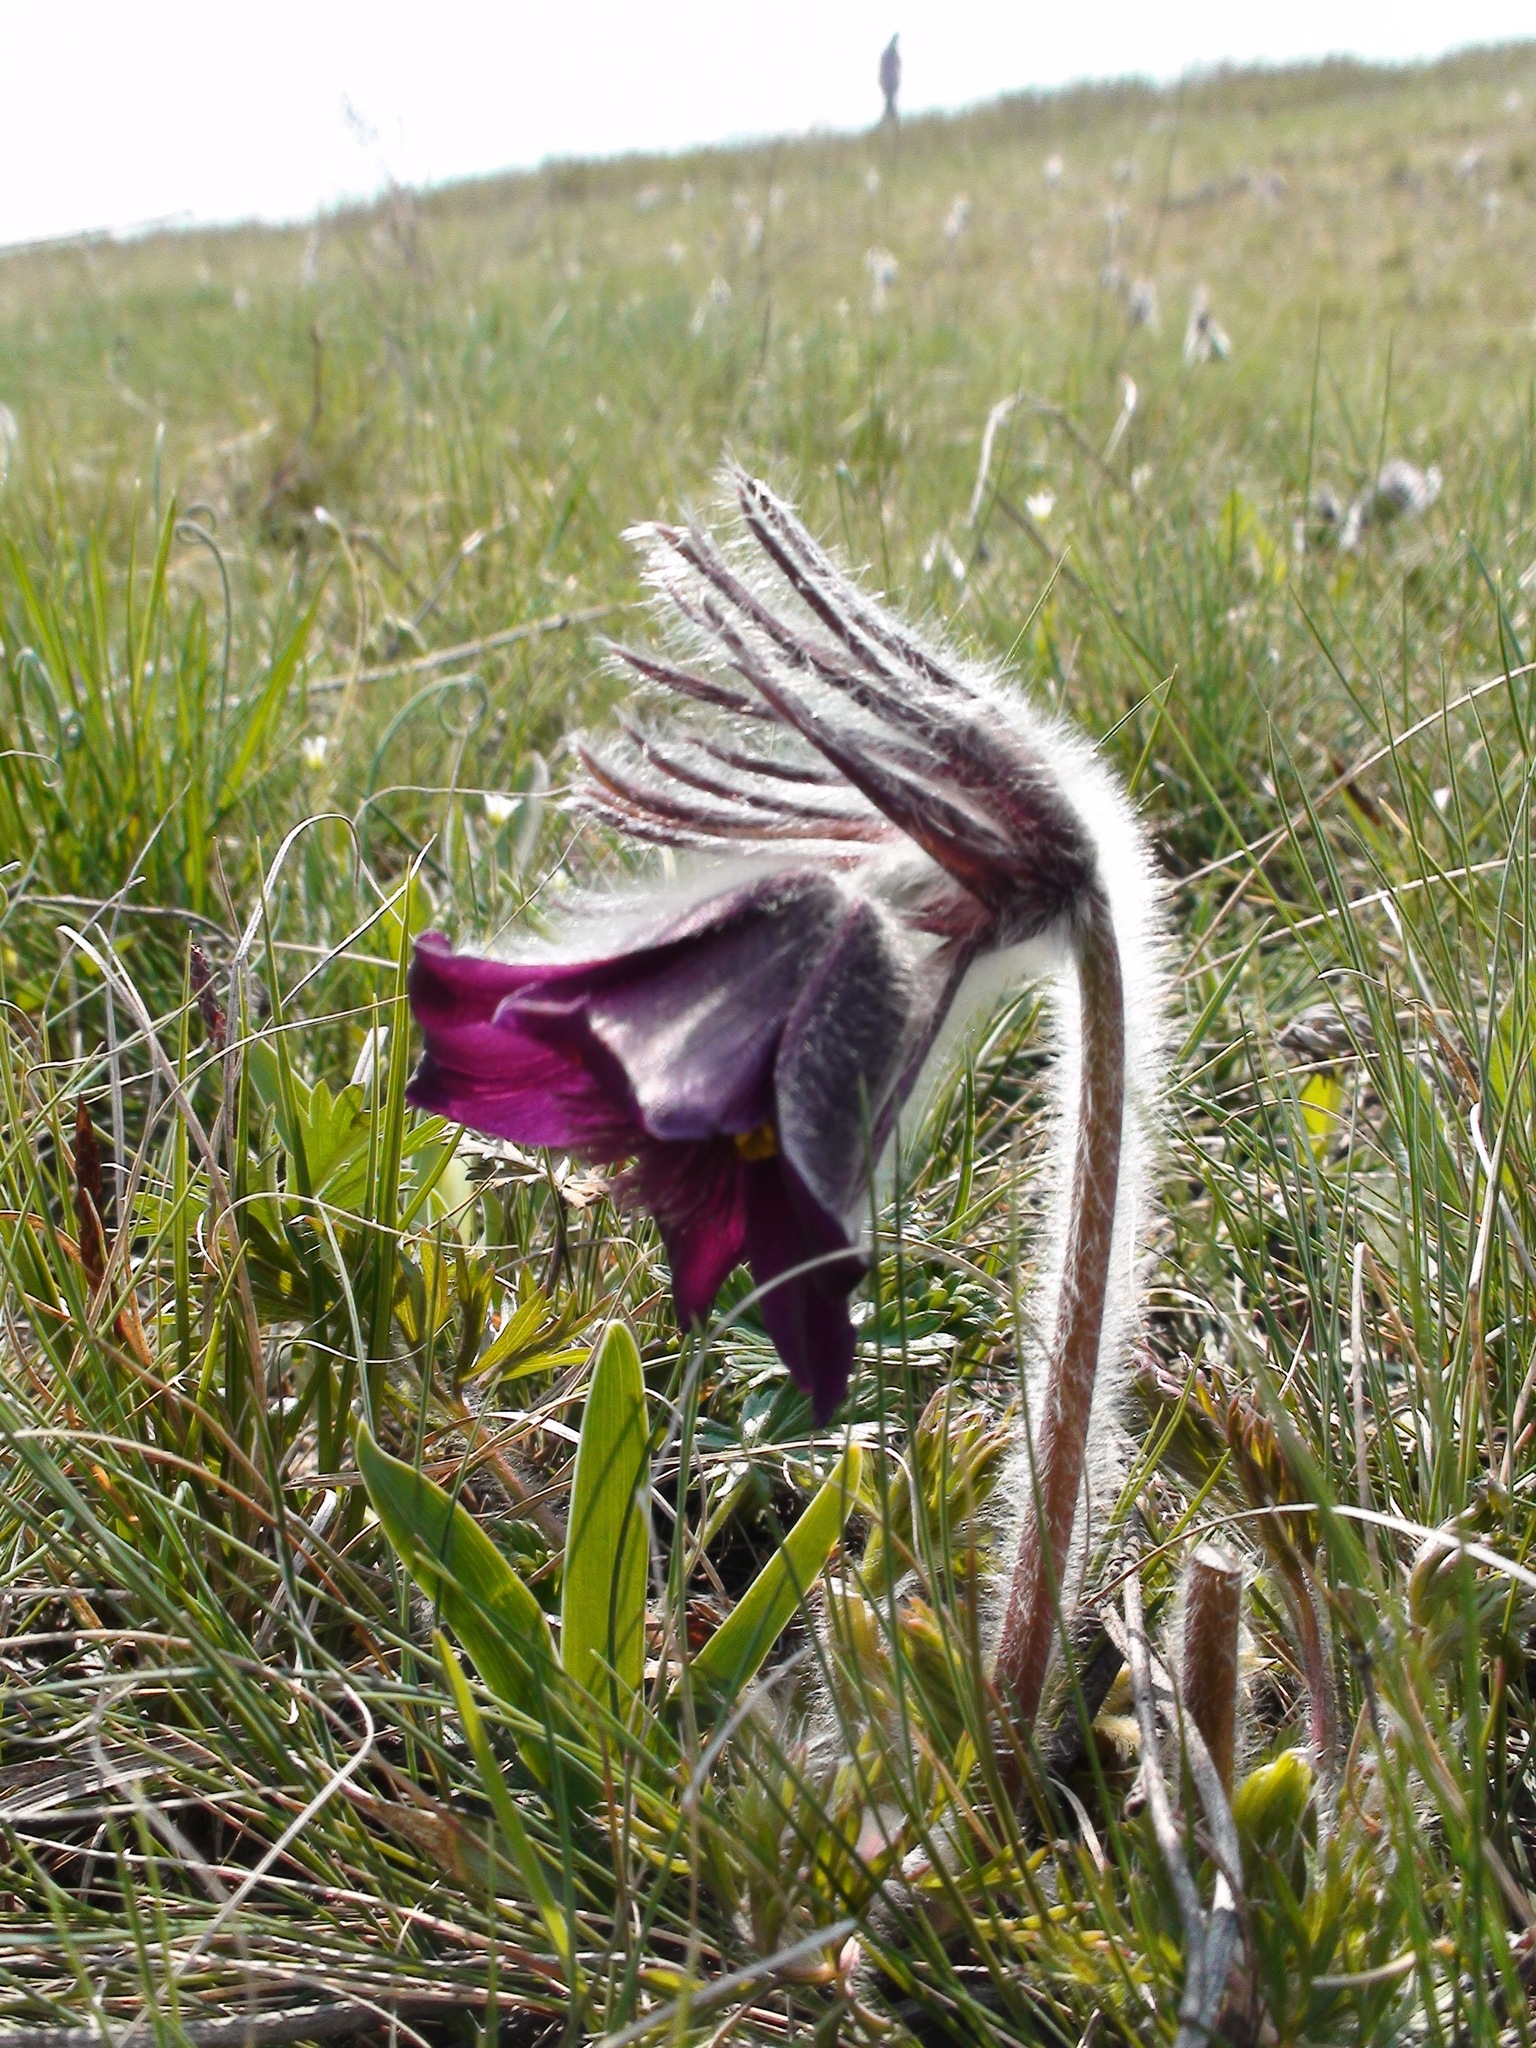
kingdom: Plantae
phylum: Tracheophyta
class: Magnoliopsida
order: Ranunculales
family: Ranunculaceae
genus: Pulsatilla
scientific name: Pulsatilla pratensis
